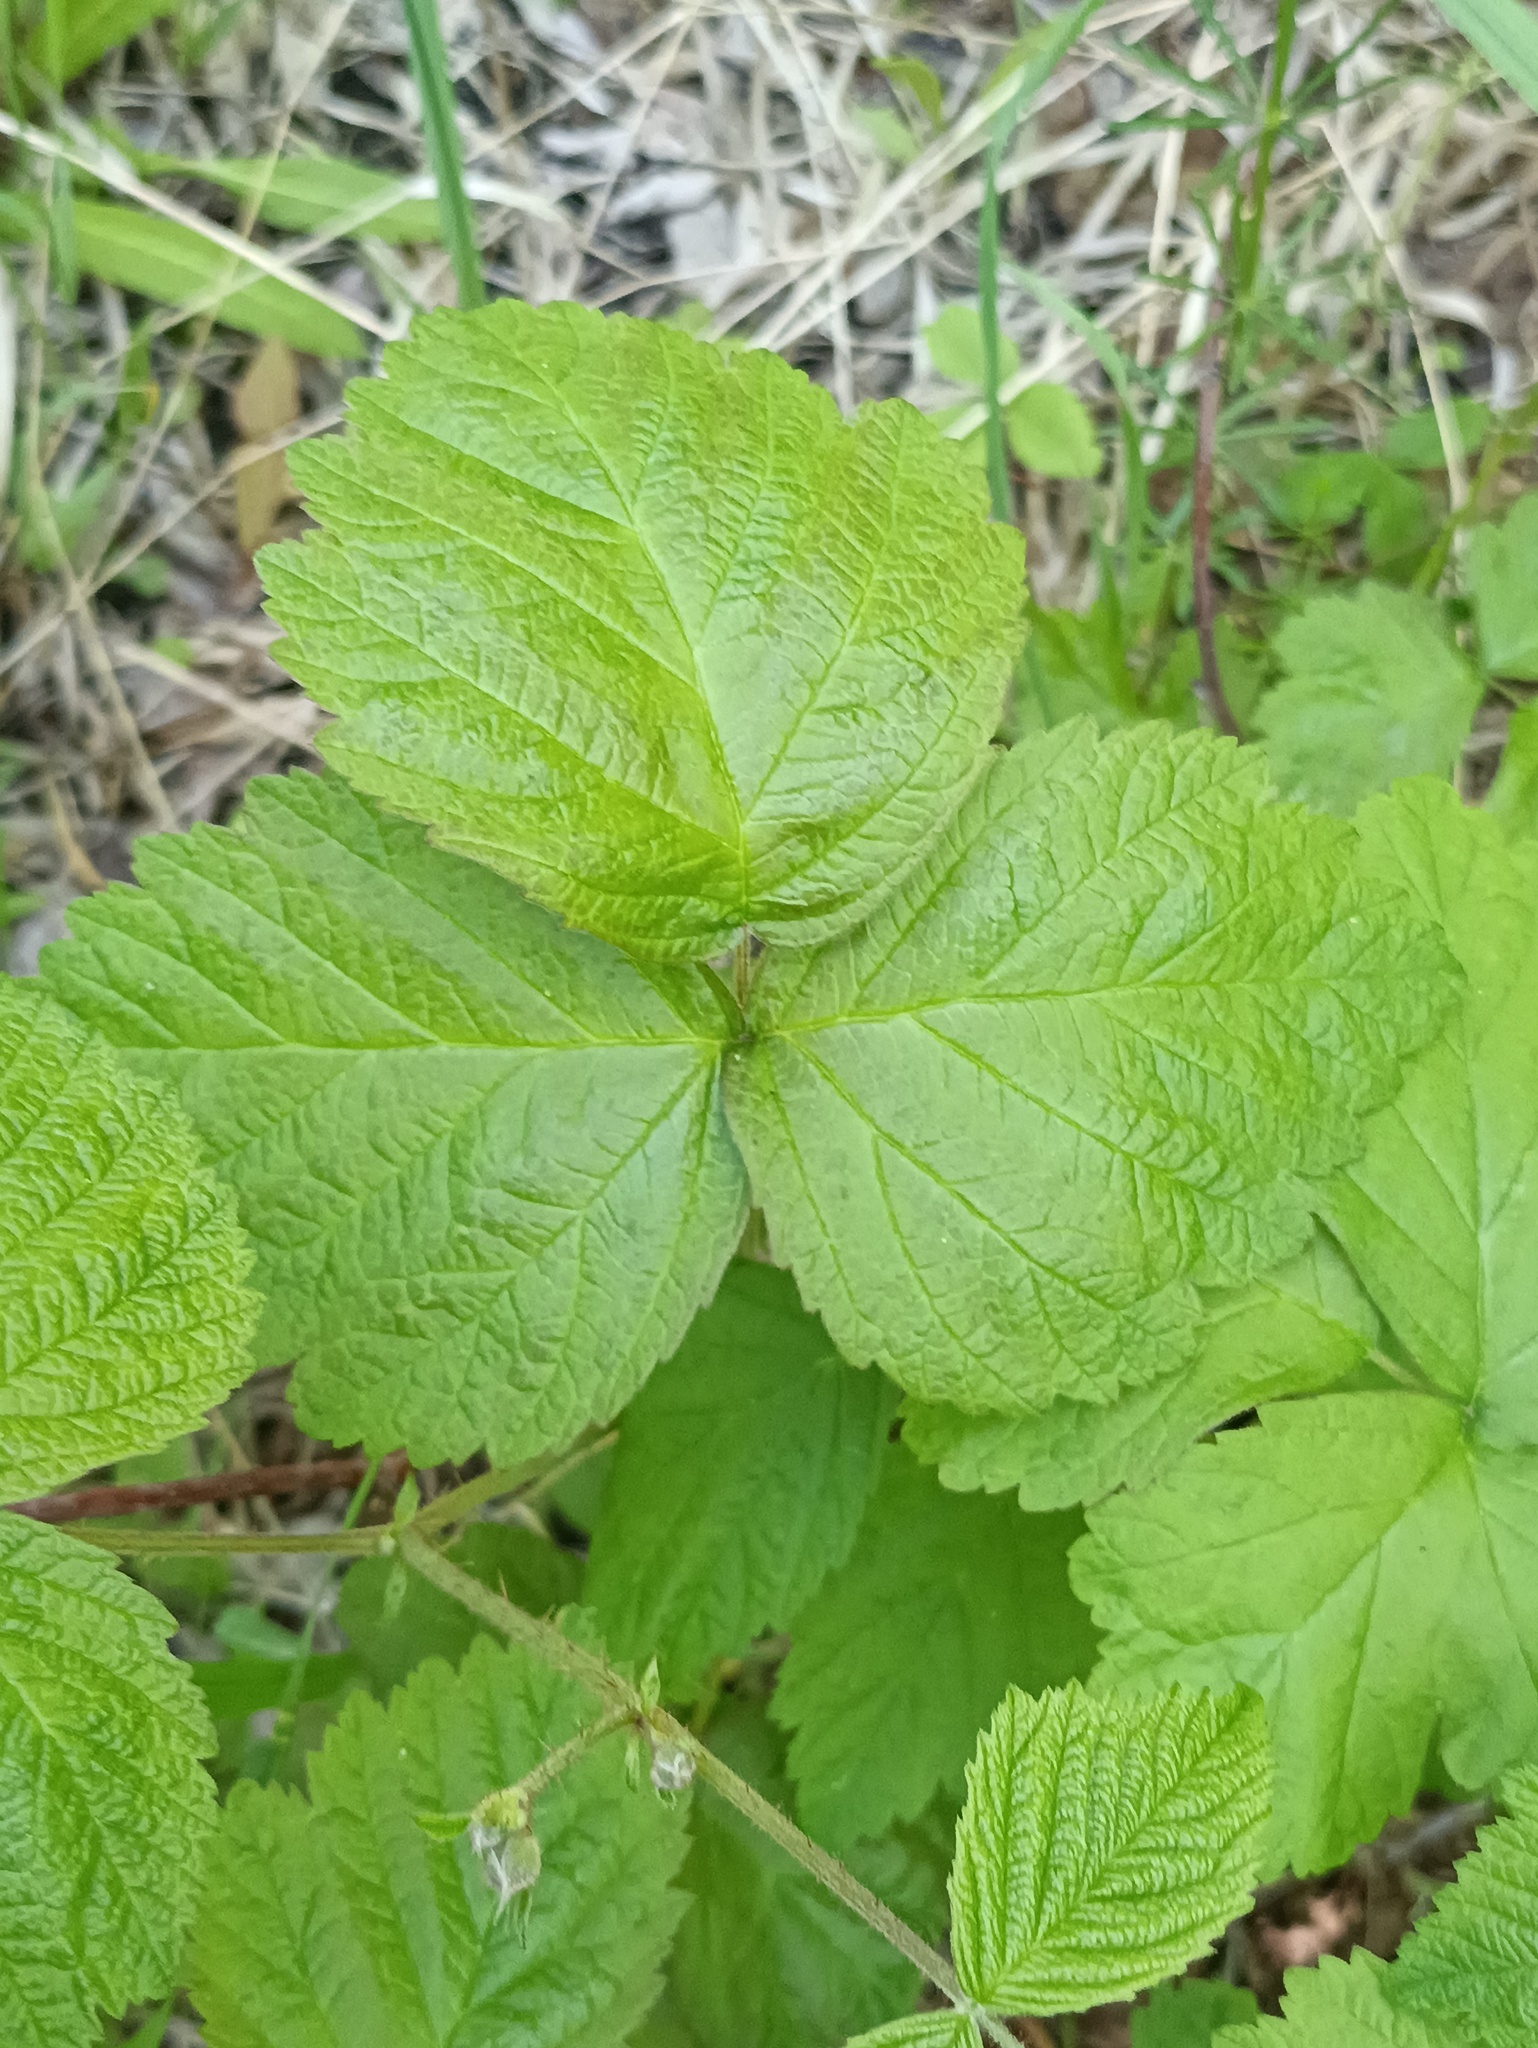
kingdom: Plantae
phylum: Tracheophyta
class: Magnoliopsida
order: Rosales
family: Rosaceae
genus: Rubus
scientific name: Rubus caesius
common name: Dewberry
